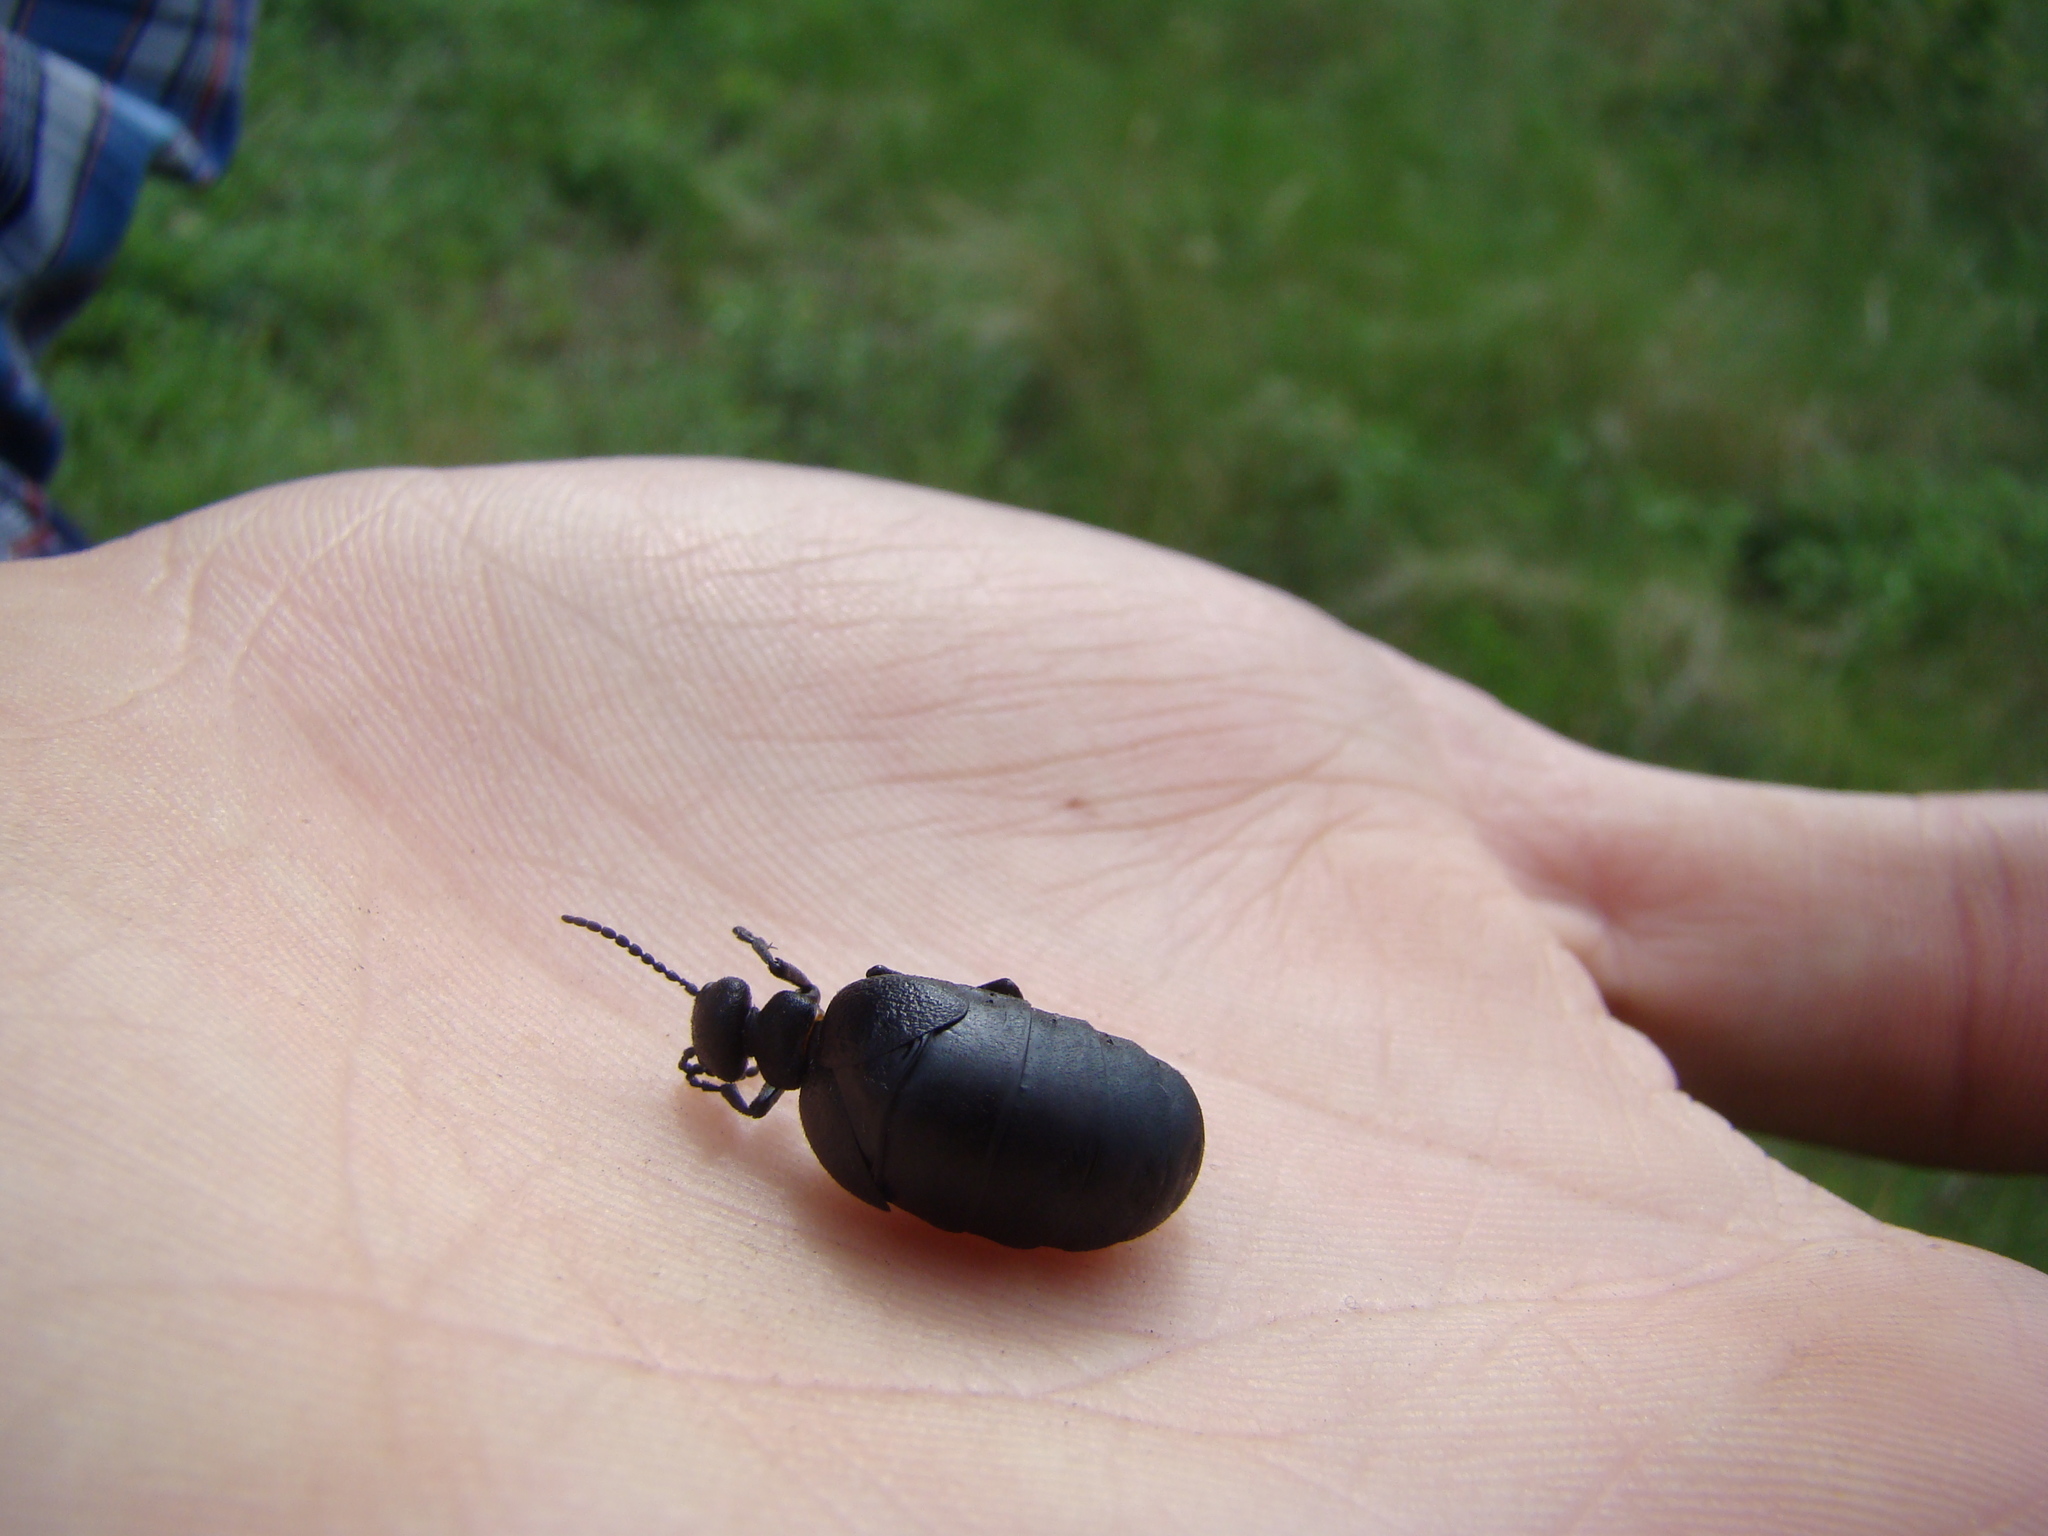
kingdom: Animalia
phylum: Arthropoda
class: Insecta
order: Coleoptera
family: Meloidae
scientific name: Meloidae
